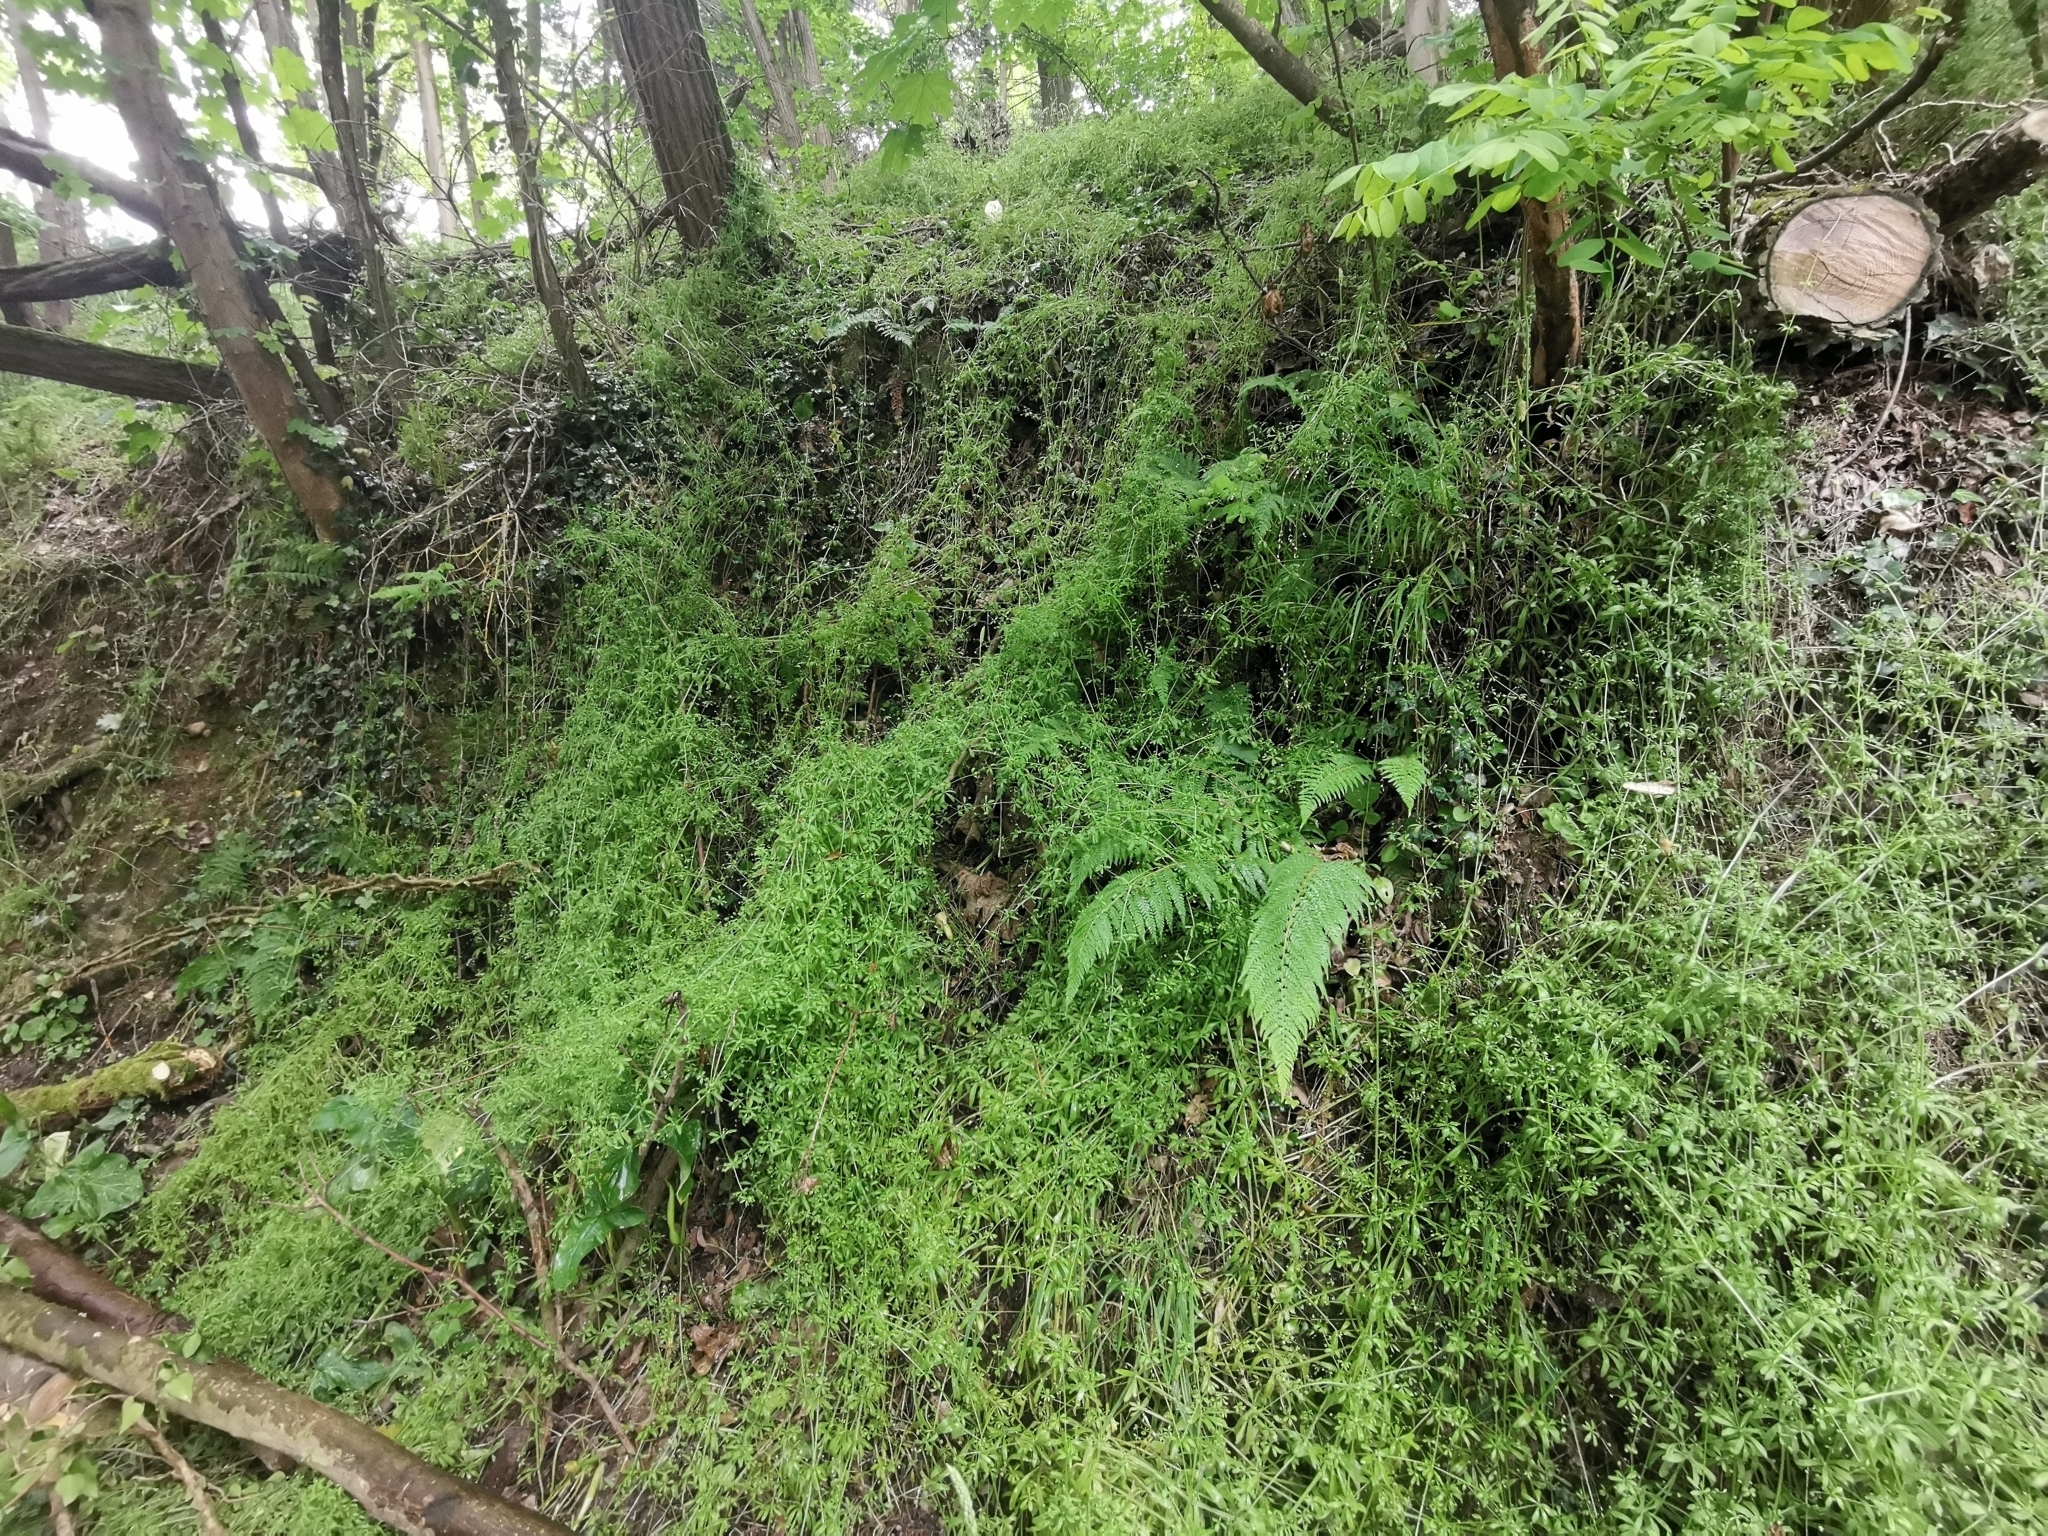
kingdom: Plantae
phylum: Tracheophyta
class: Magnoliopsida
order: Gentianales
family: Rubiaceae
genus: Galium
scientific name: Galium aparine
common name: Cleavers
